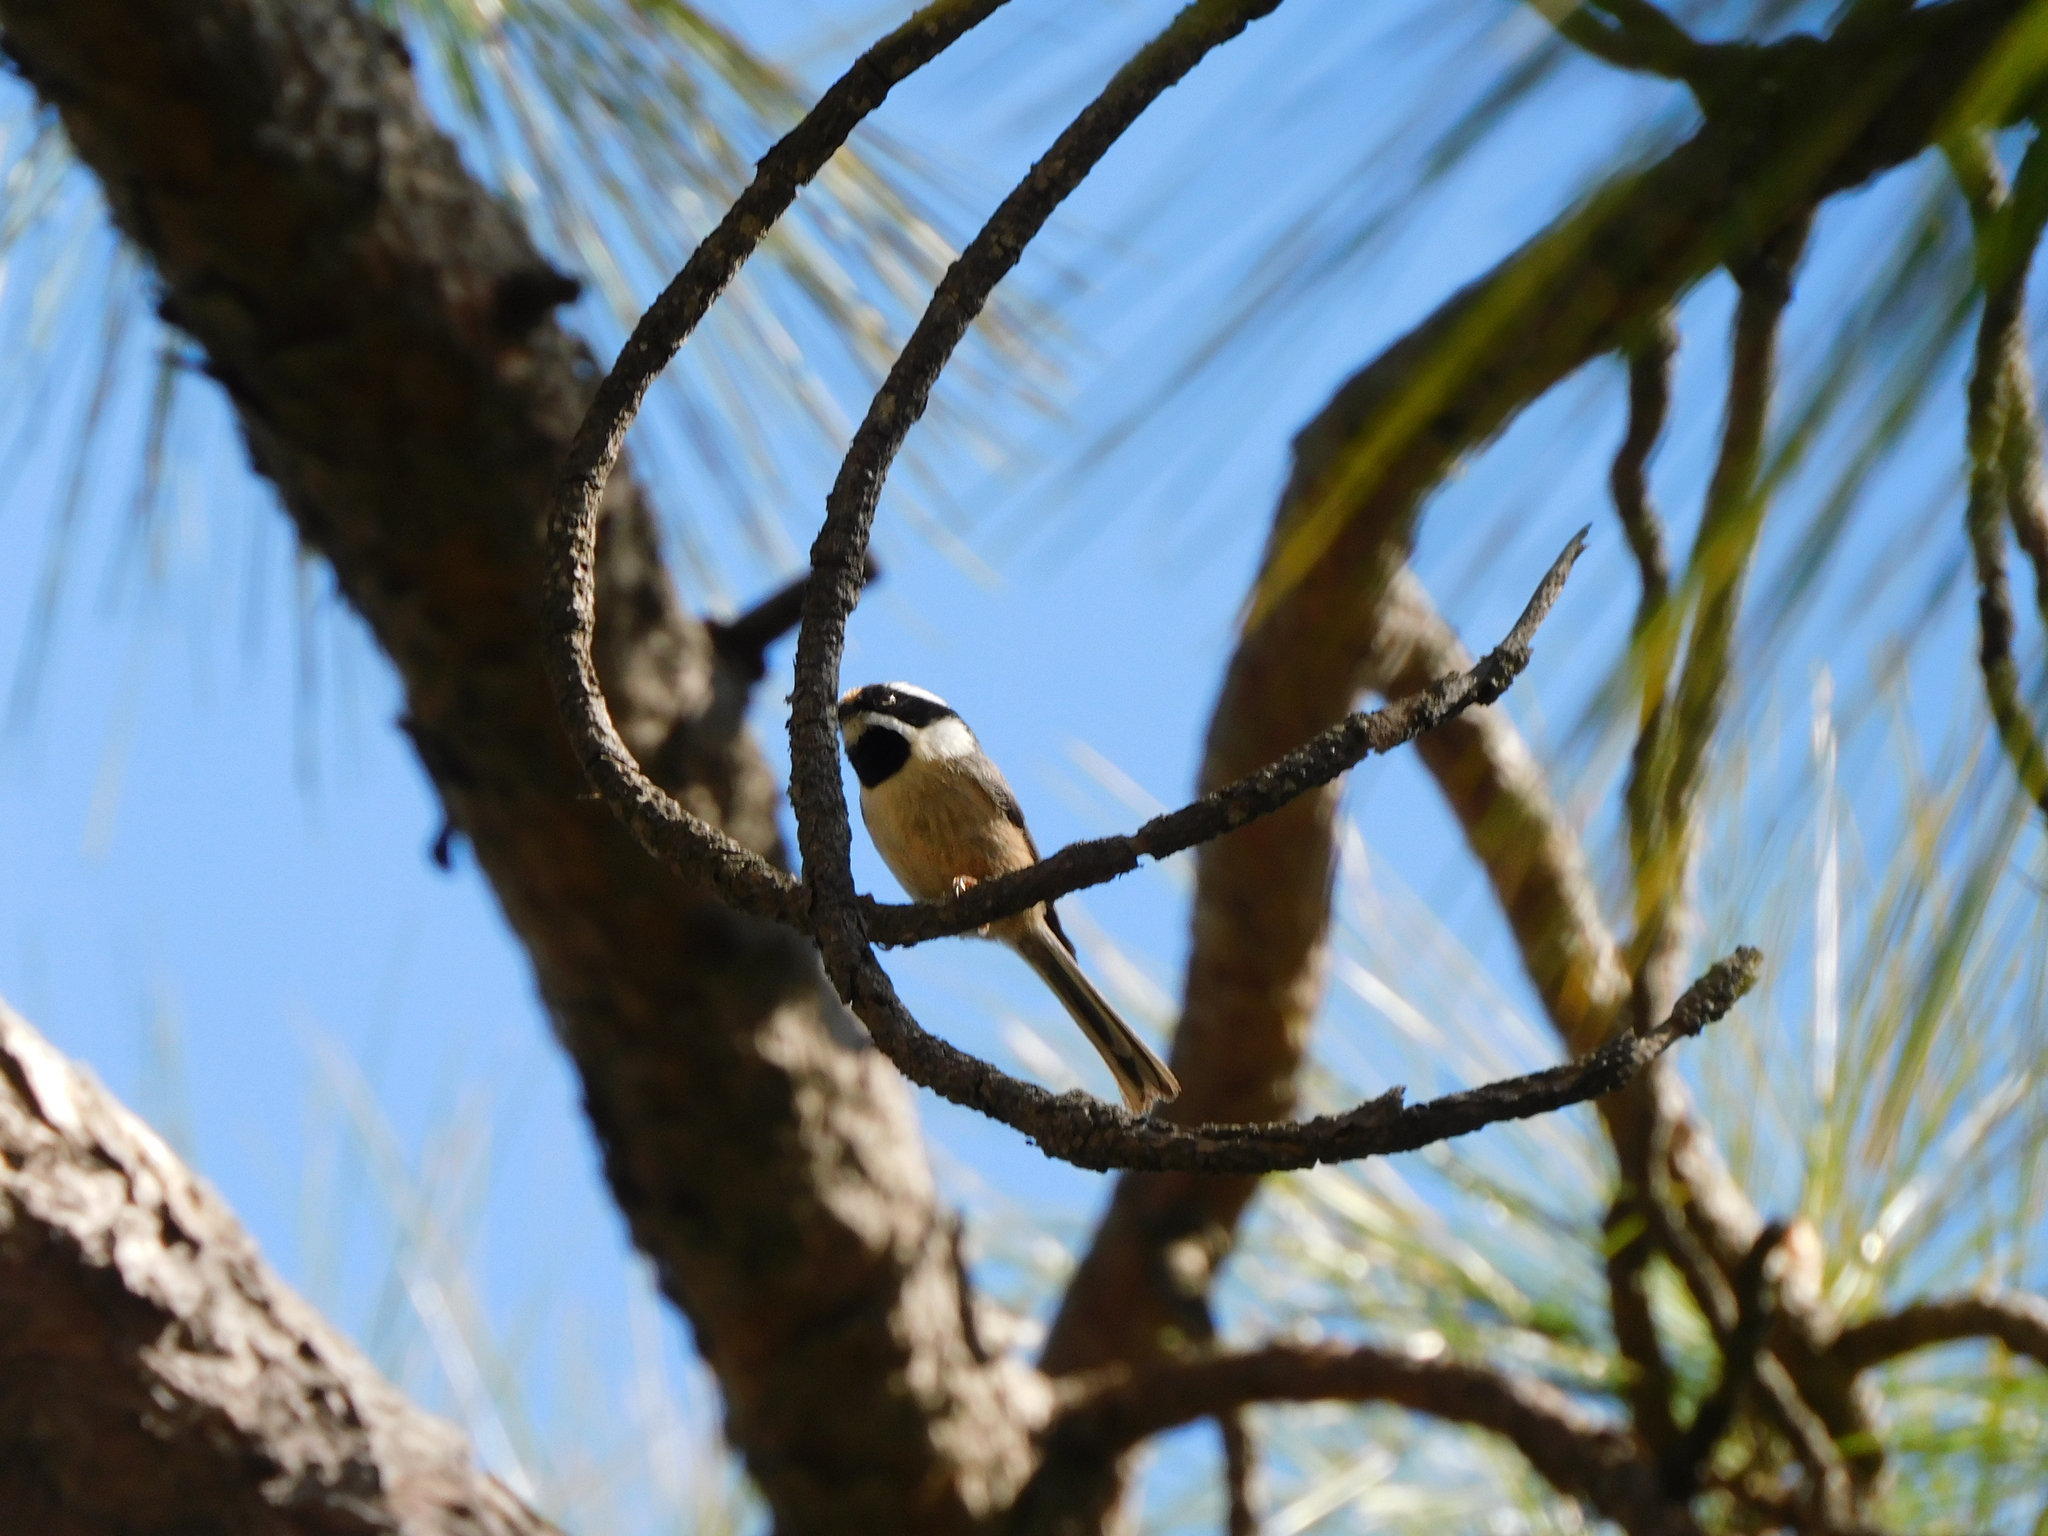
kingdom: Animalia
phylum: Chordata
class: Aves
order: Passeriformes
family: Aegithalidae
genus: Aegithalos
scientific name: Aegithalos concinnus
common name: Black-throated bushtit
